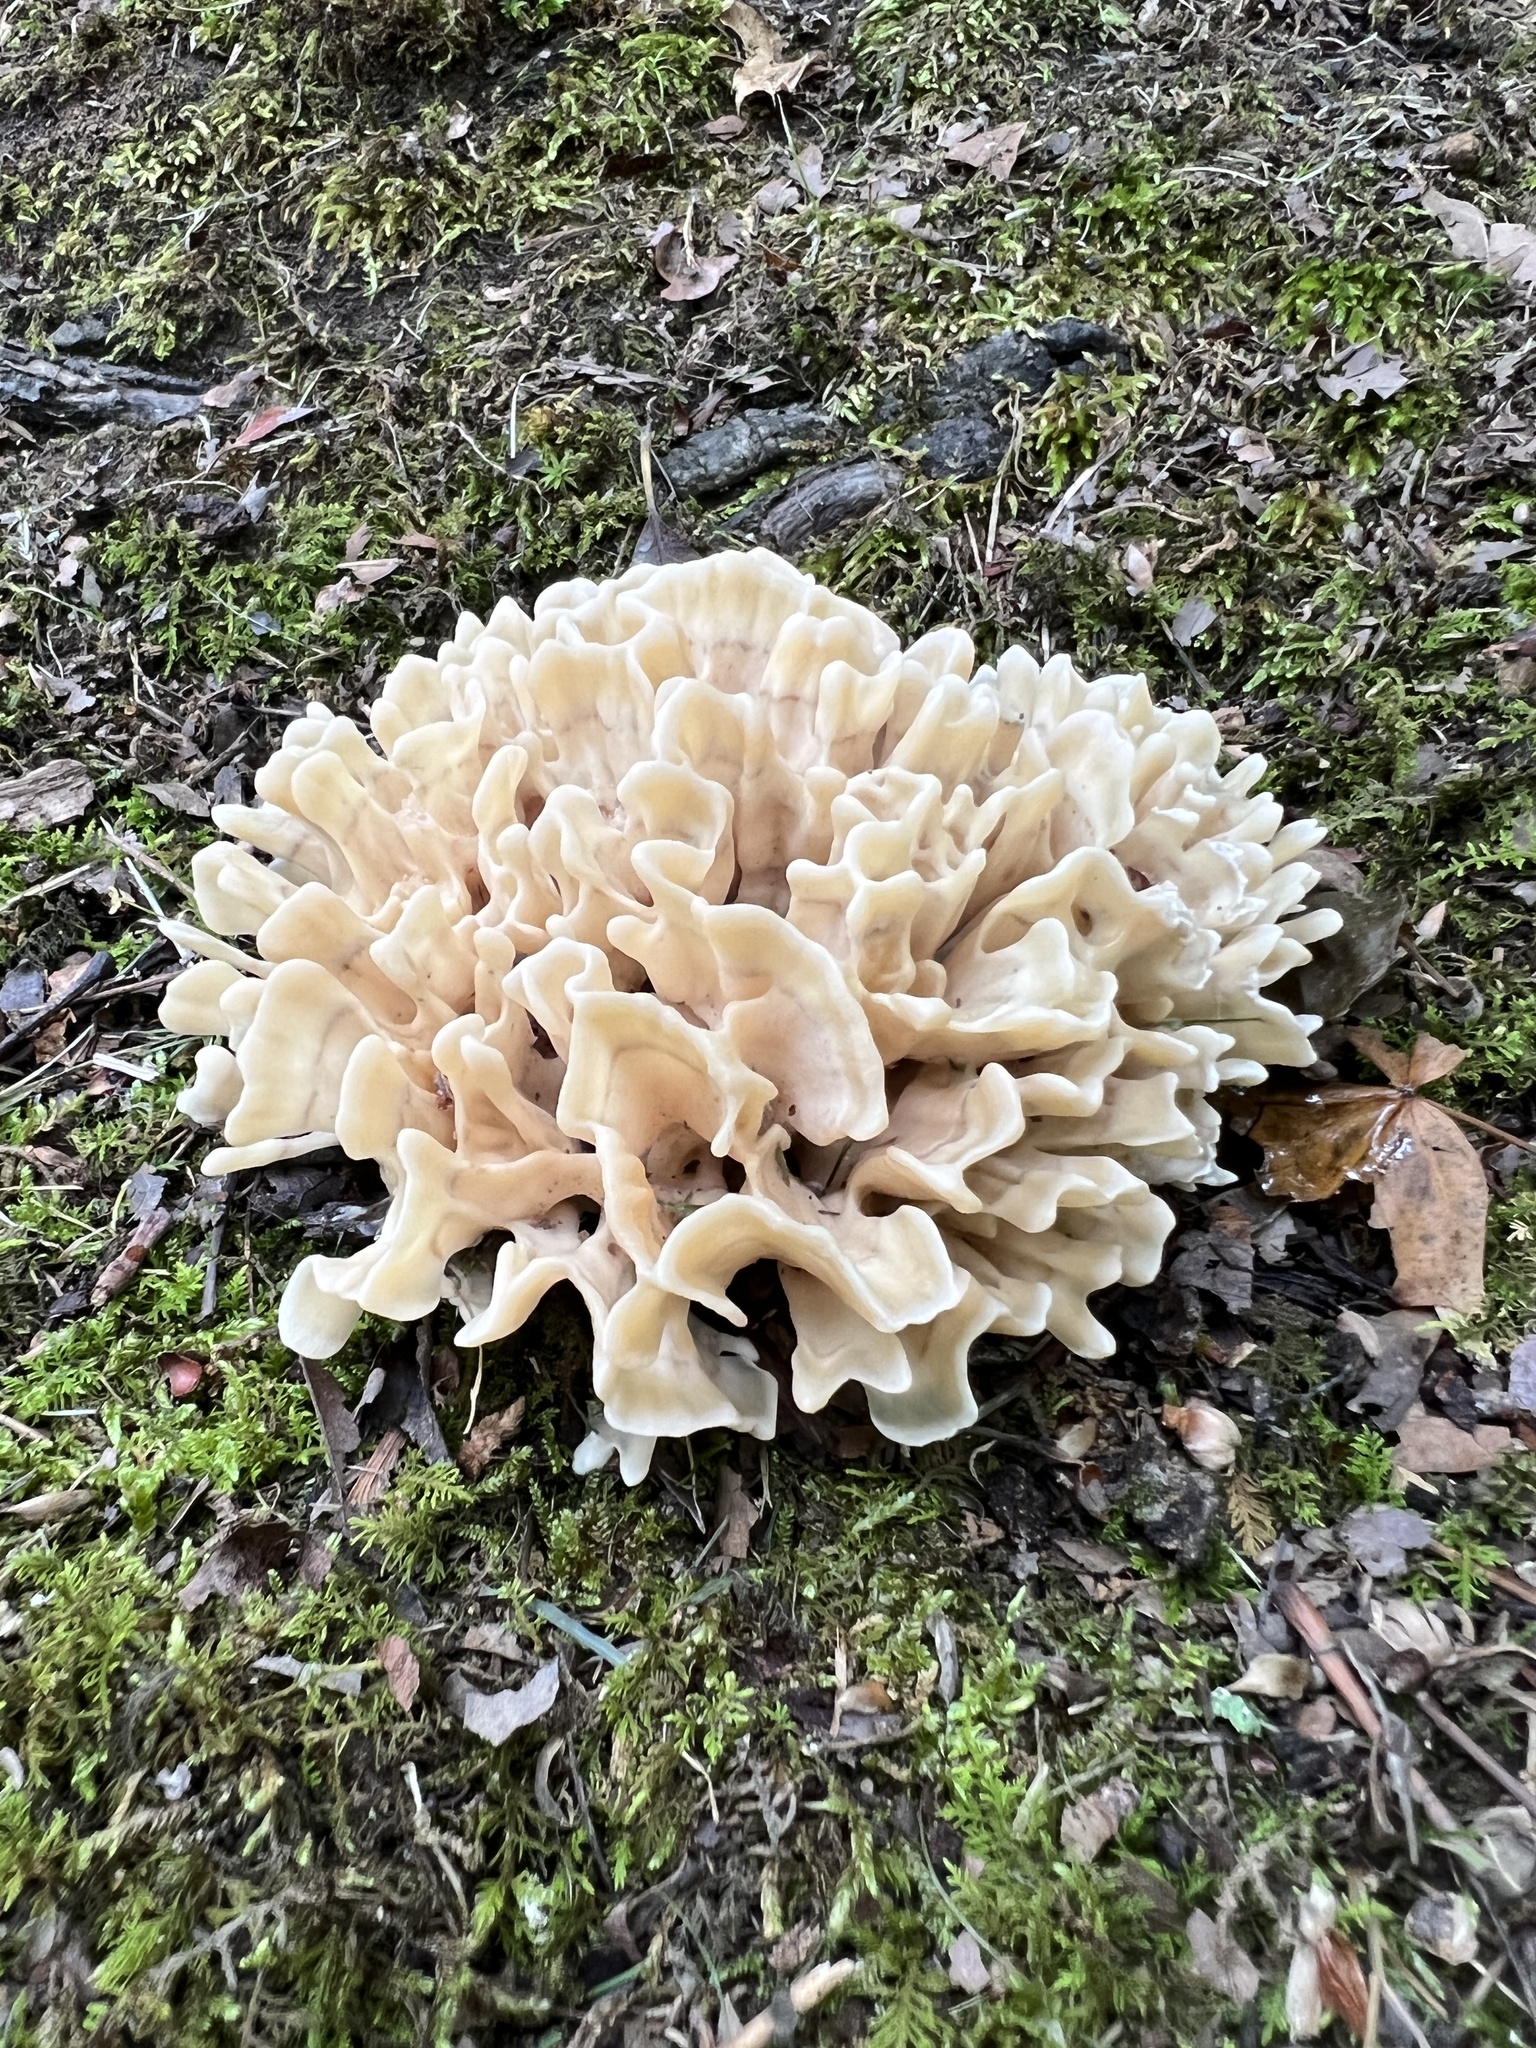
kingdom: Fungi
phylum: Basidiomycota
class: Agaricomycetes
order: Polyporales
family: Sparassidaceae
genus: Sparassis
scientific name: Sparassis spathulata
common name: Eastern cauliflower mushroom
